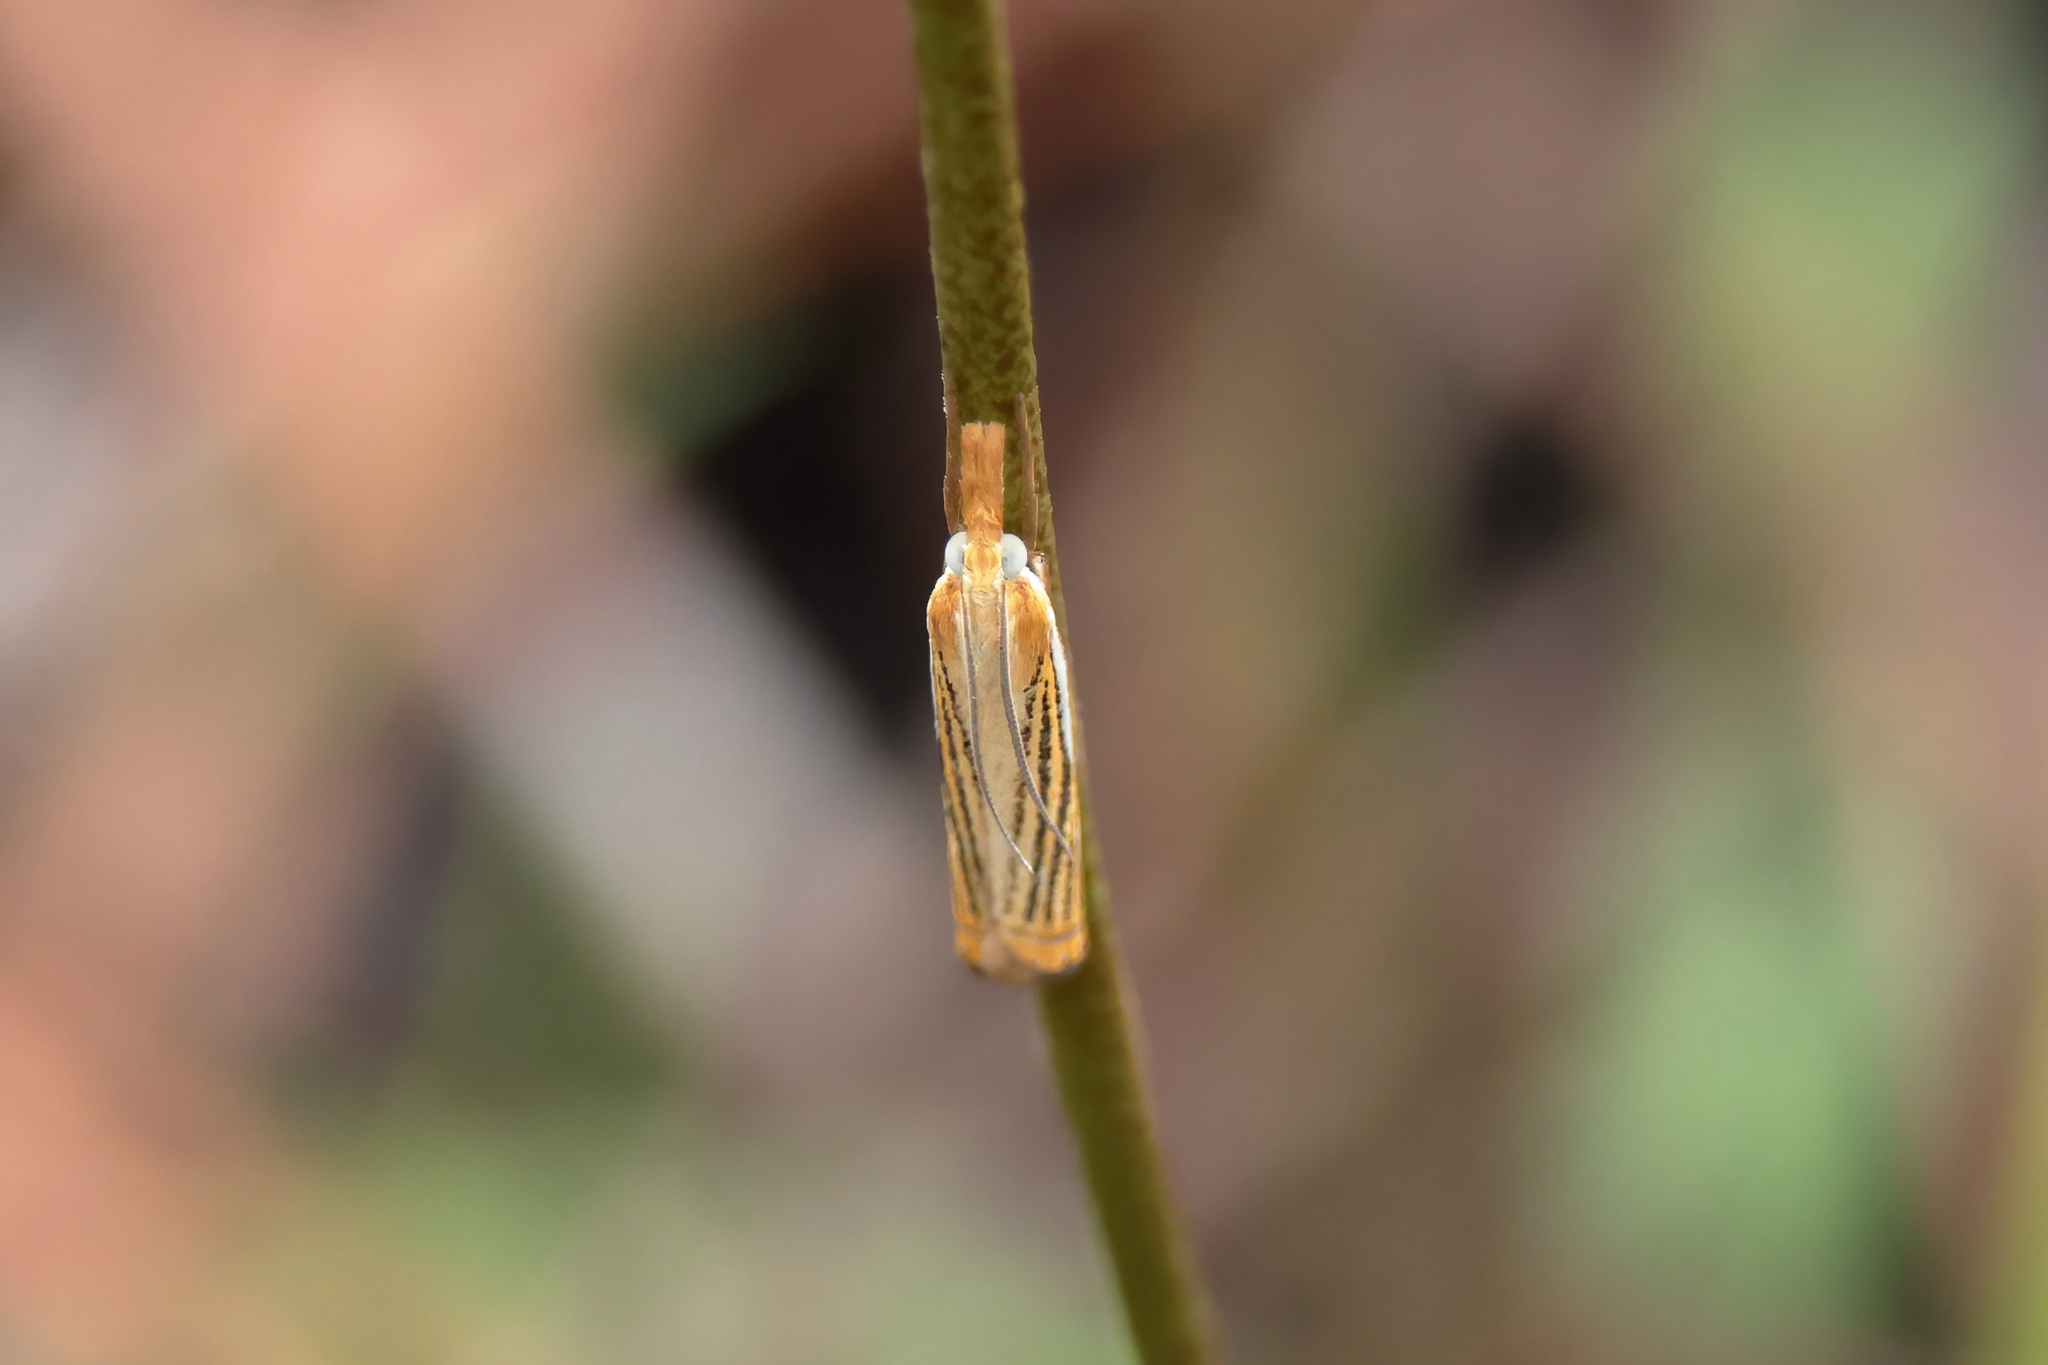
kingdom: Animalia
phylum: Arthropoda
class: Insecta
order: Lepidoptera
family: Crambidae
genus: Crambus
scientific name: Crambus multilinellus
